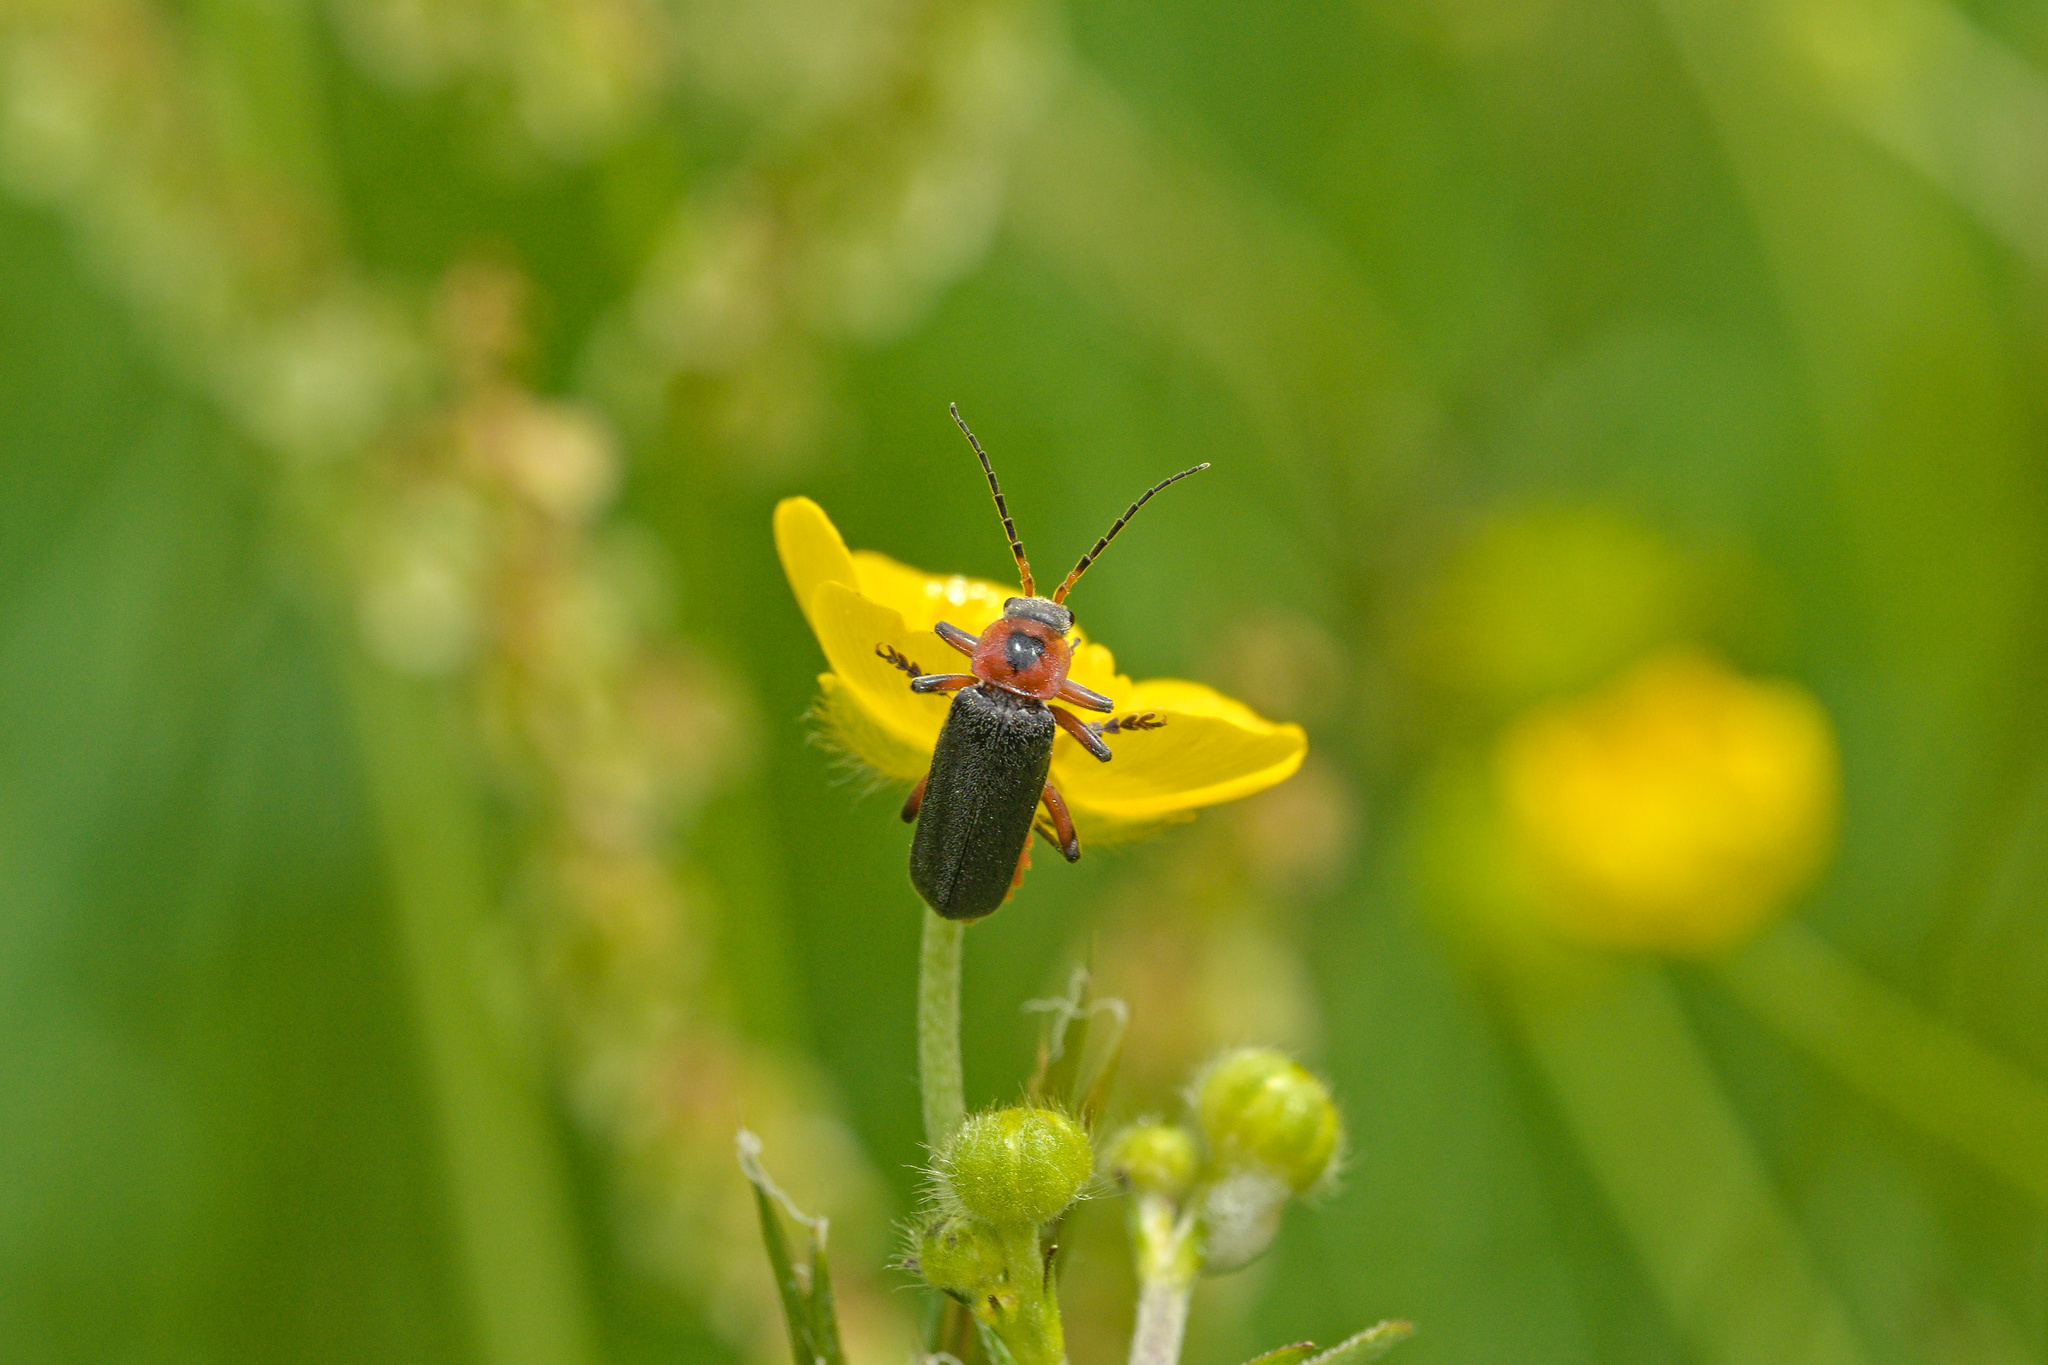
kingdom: Animalia
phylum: Arthropoda
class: Insecta
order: Coleoptera
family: Cantharidae
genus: Cantharis
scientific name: Cantharis rustica
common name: Soldier beetle
